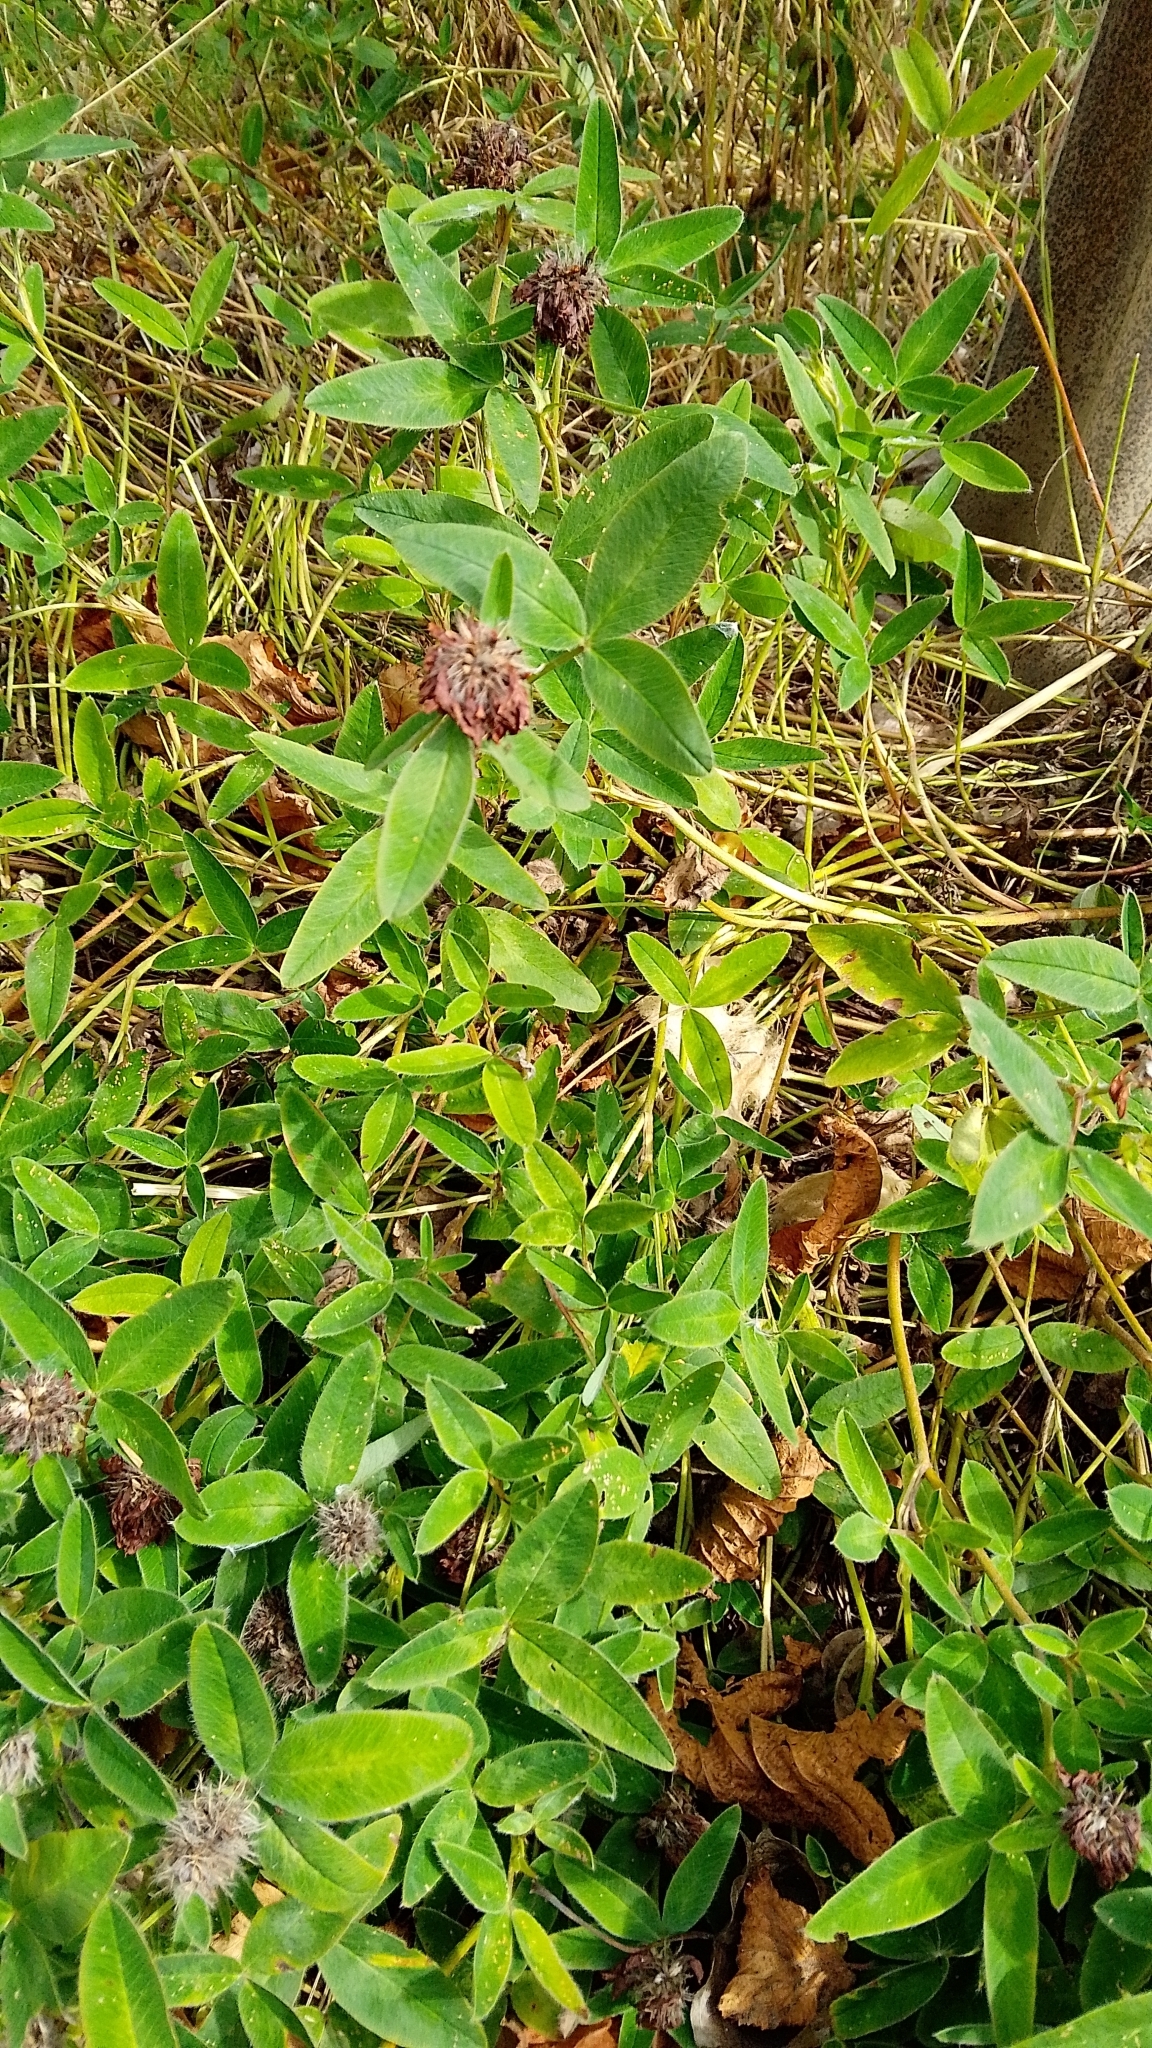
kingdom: Plantae
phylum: Tracheophyta
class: Magnoliopsida
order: Fabales
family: Fabaceae
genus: Trifolium
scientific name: Trifolium medium
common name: Zigzag clover
